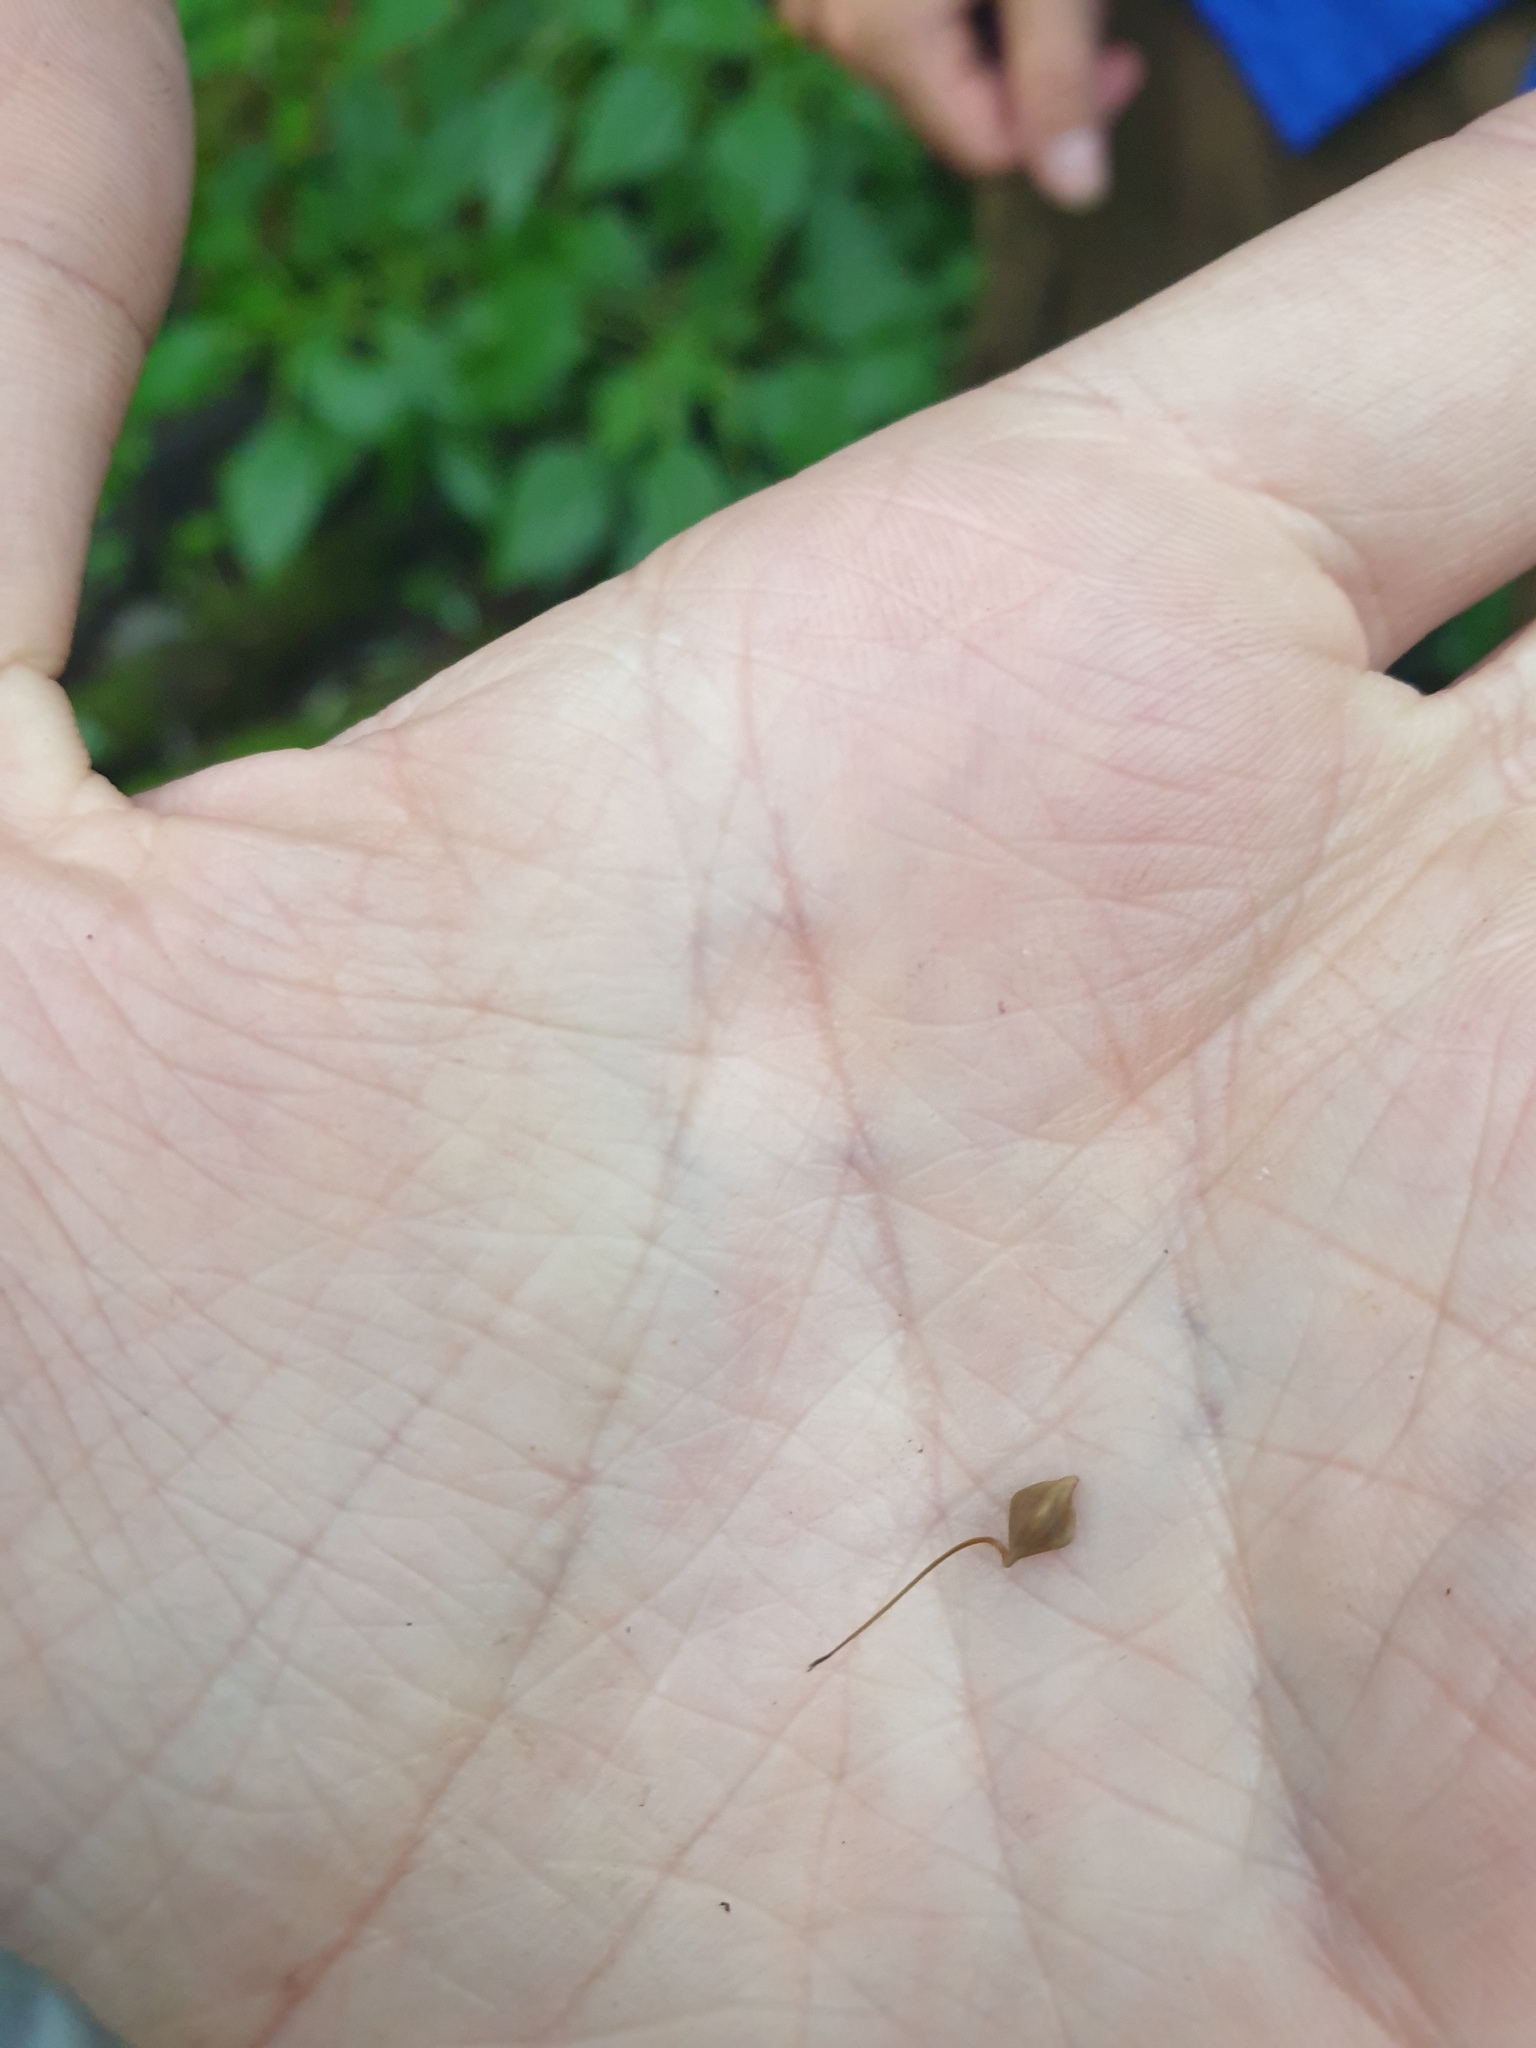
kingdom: Plantae
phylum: Tracheophyta
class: Liliopsida
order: Poales
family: Cyperaceae
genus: Carex
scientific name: Carex lupulina
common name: Hop sedge
